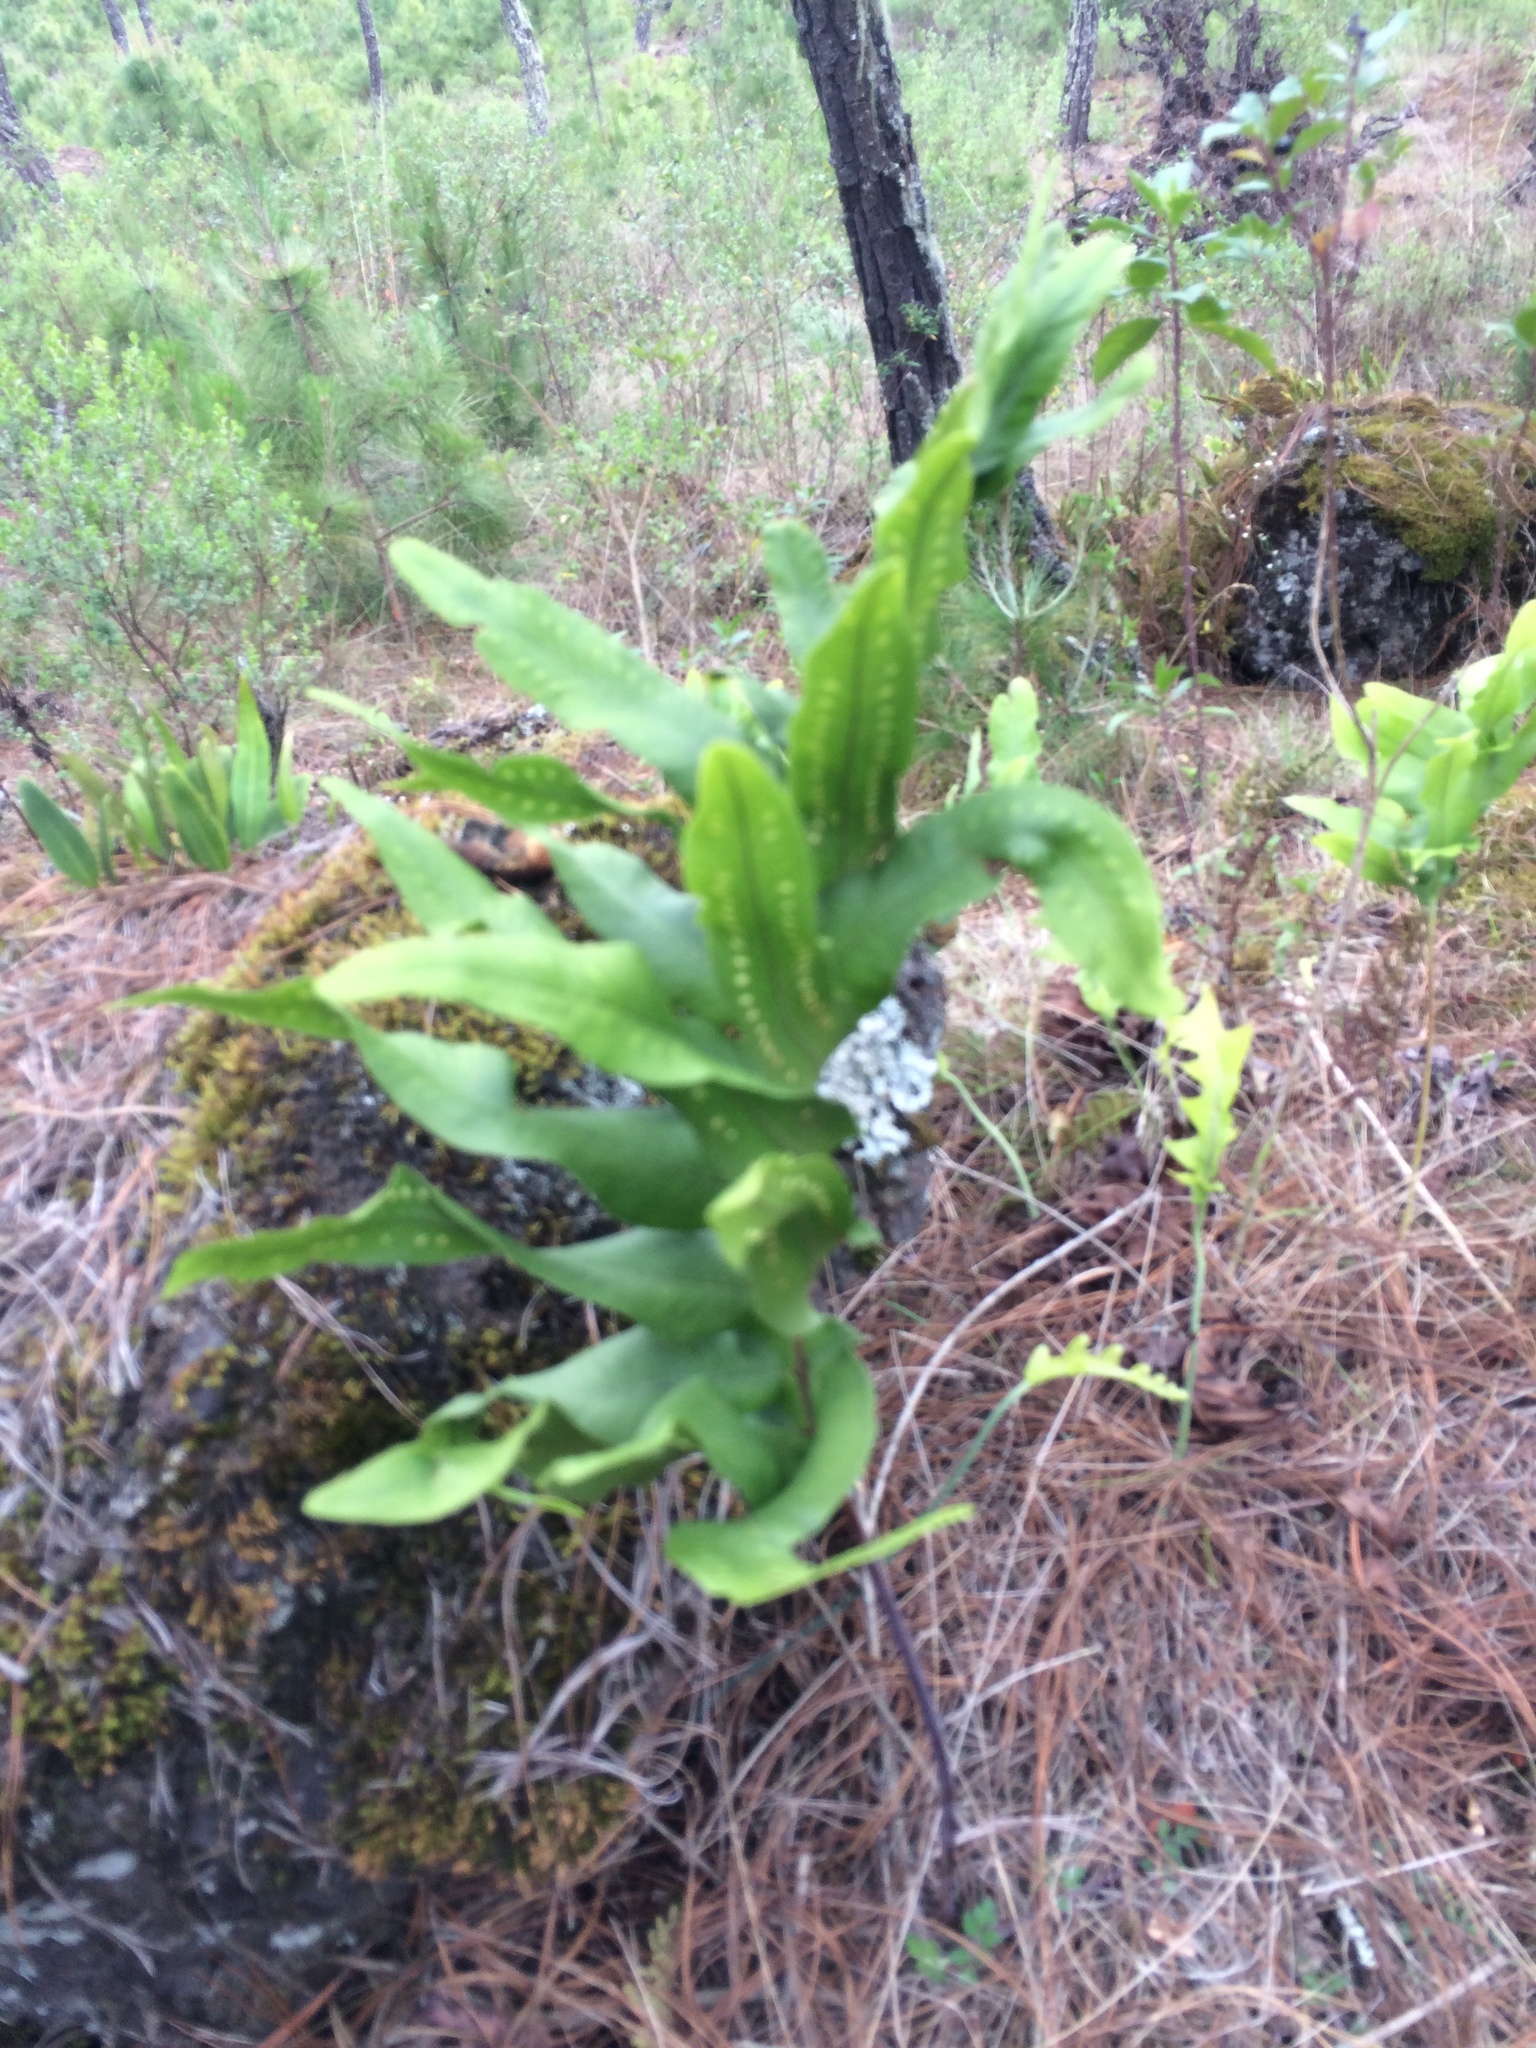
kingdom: Plantae
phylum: Tracheophyta
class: Polypodiopsida
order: Polypodiales
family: Polypodiaceae
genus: Phlebodium
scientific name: Phlebodium pseudoaureum
